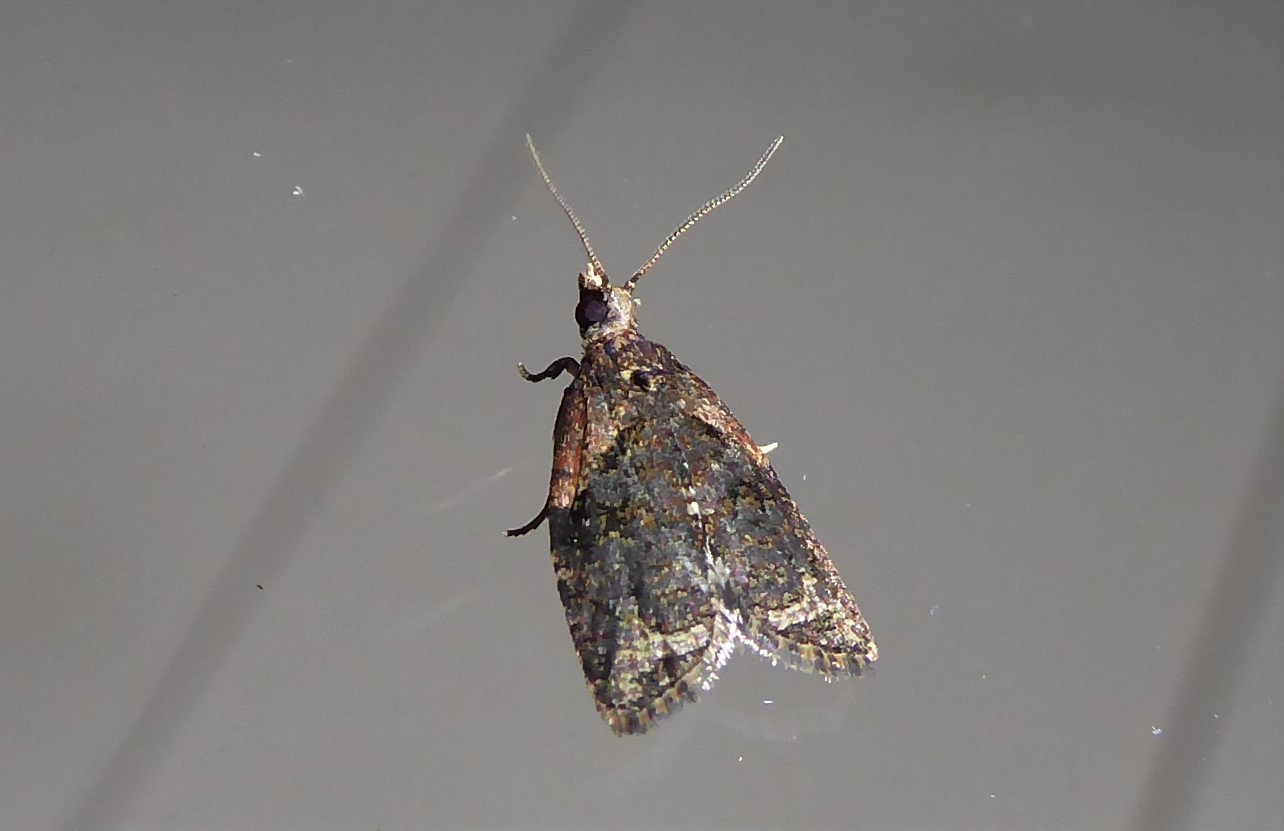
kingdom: Animalia
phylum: Arthropoda
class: Insecta
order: Lepidoptera
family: Tortricidae
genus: Capua
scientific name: Capua intractana
